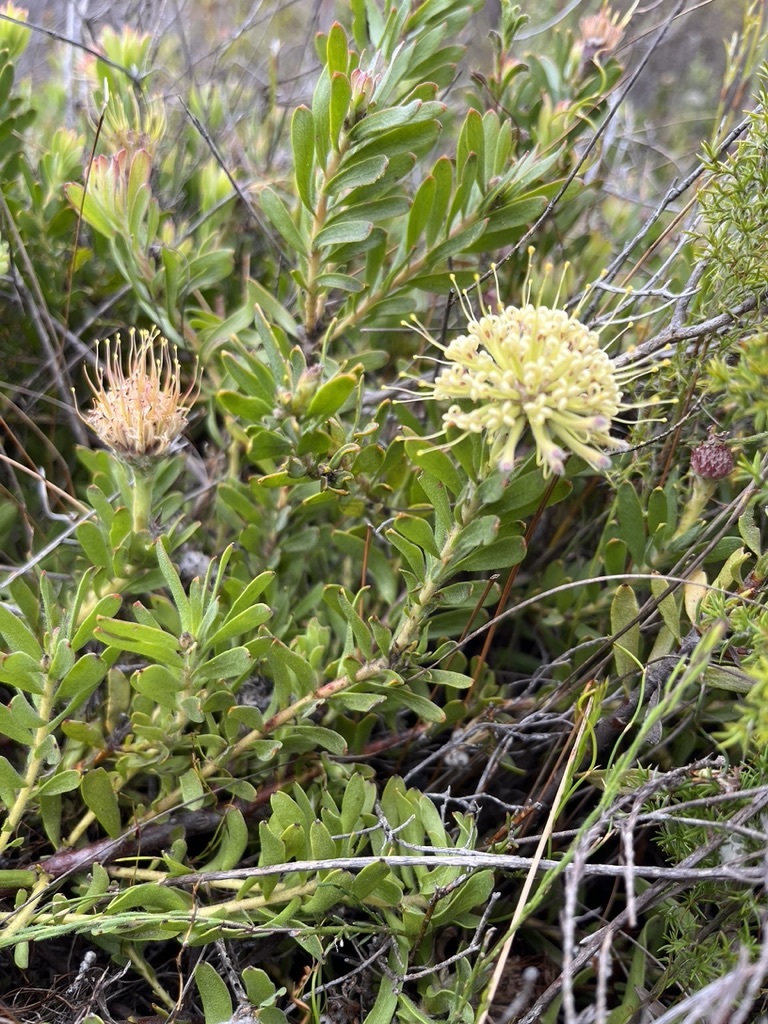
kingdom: Plantae
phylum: Tracheophyta
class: Magnoliopsida
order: Proteales
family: Proteaceae
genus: Leucospermum
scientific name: Leucospermum heterophyllum
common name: Trident pincushion
